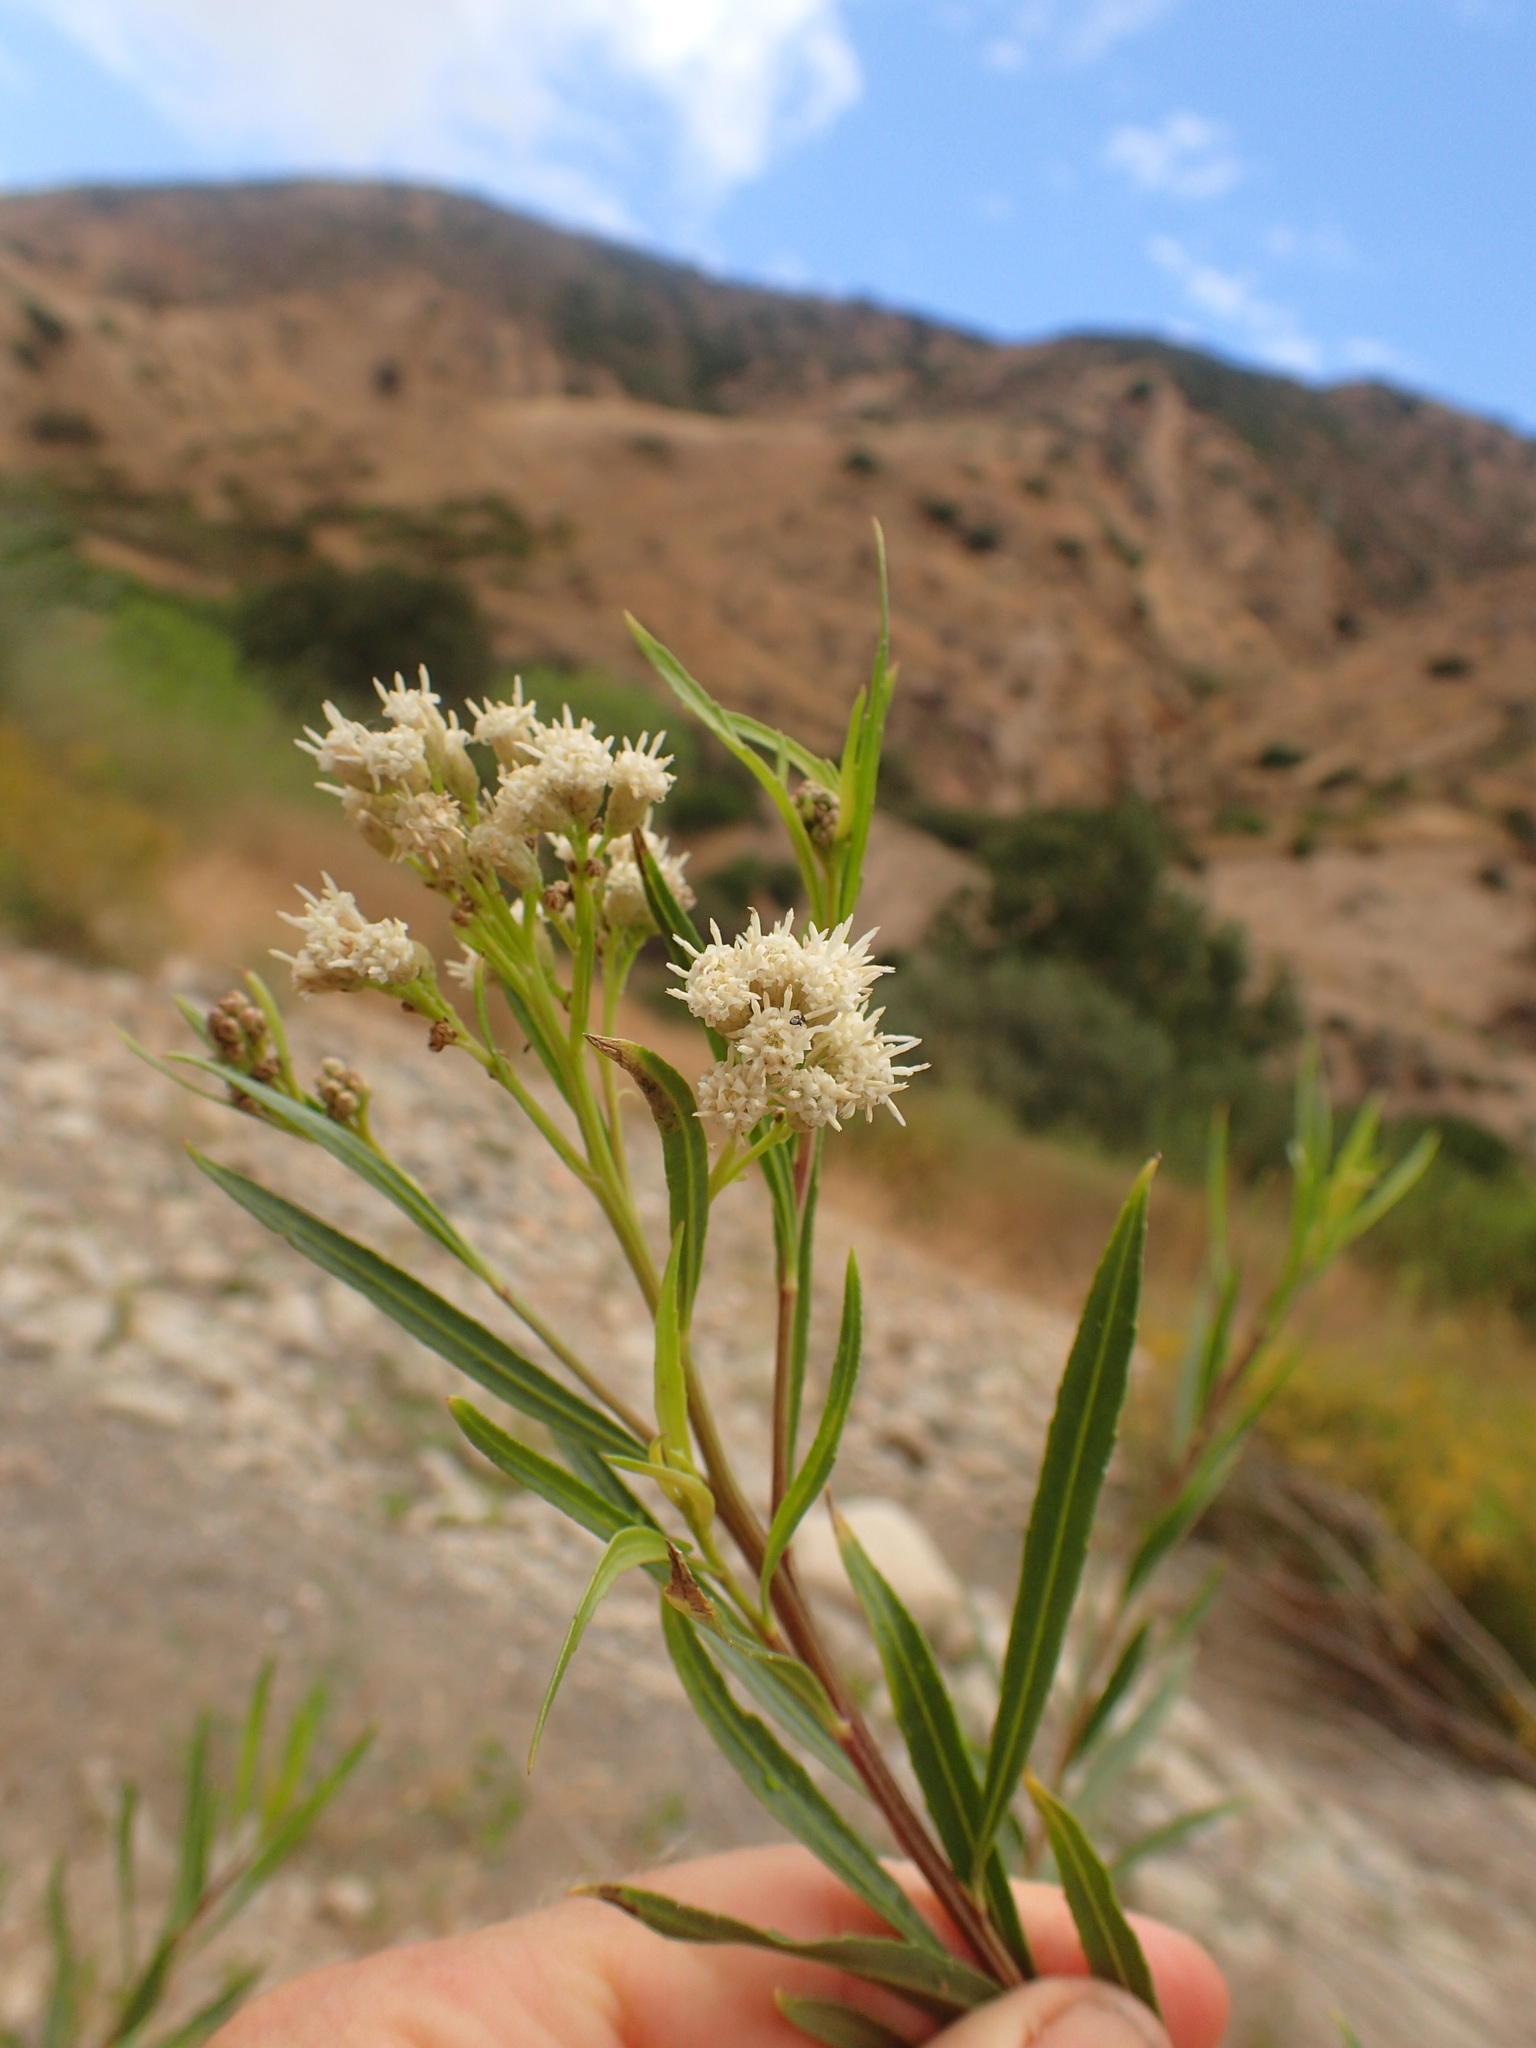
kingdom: Plantae
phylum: Tracheophyta
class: Magnoliopsida
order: Asterales
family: Asteraceae
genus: Baccharis
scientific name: Baccharis salicifolia
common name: Sticky baccharis
